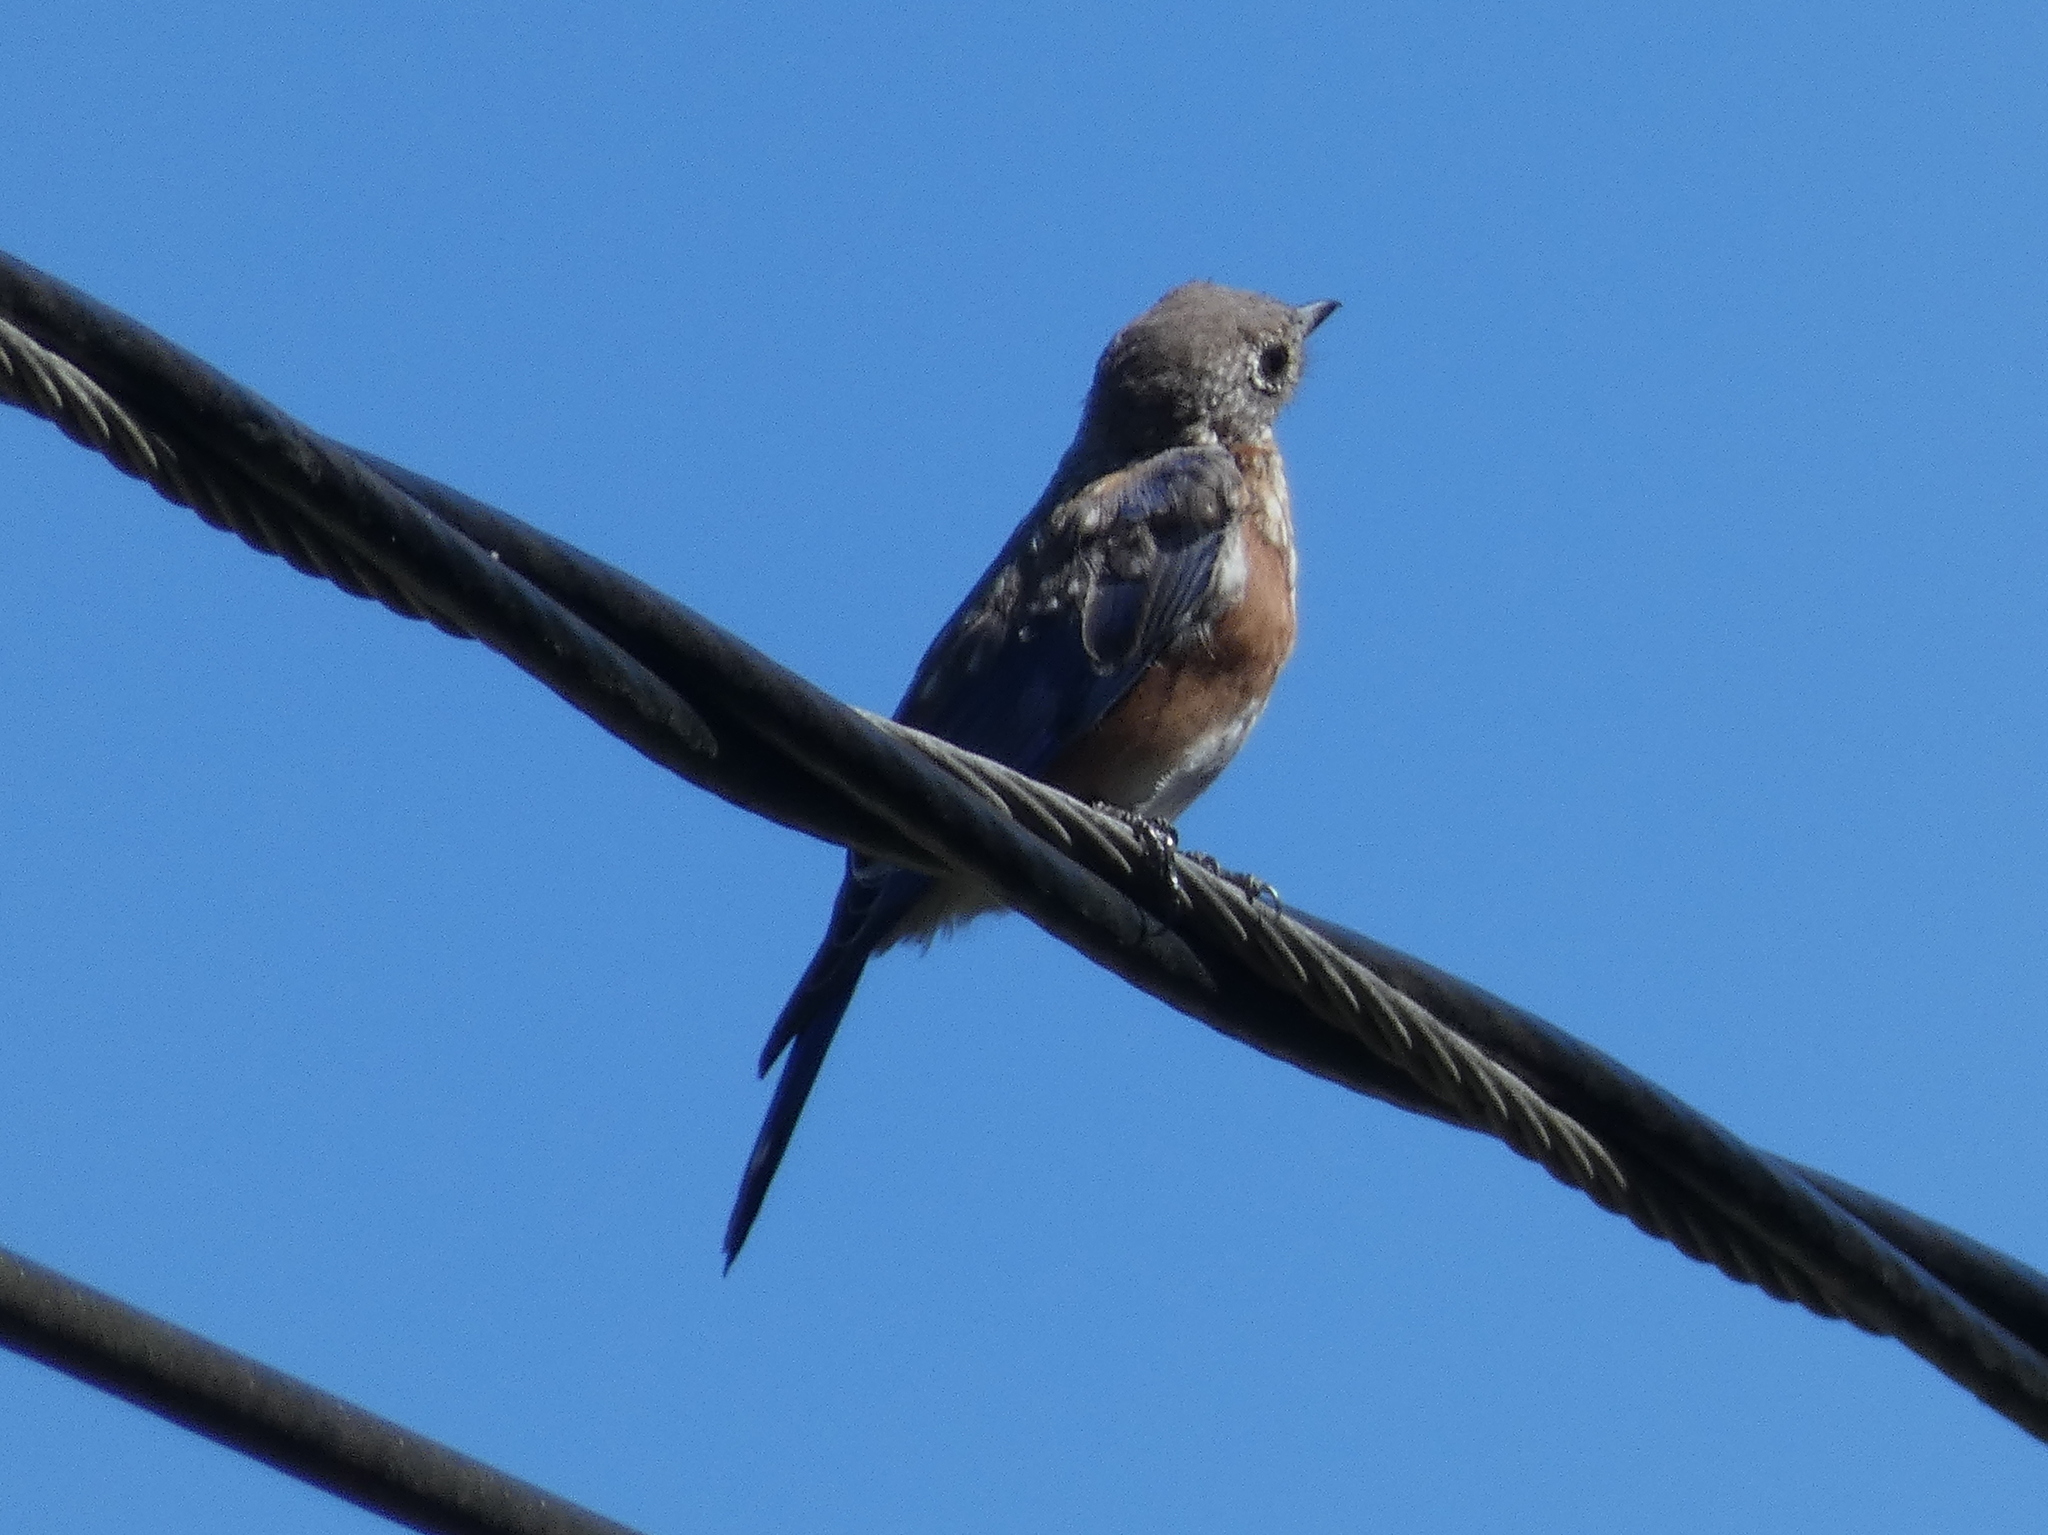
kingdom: Animalia
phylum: Chordata
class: Aves
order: Passeriformes
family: Turdidae
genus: Sialia
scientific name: Sialia sialis
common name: Eastern bluebird
